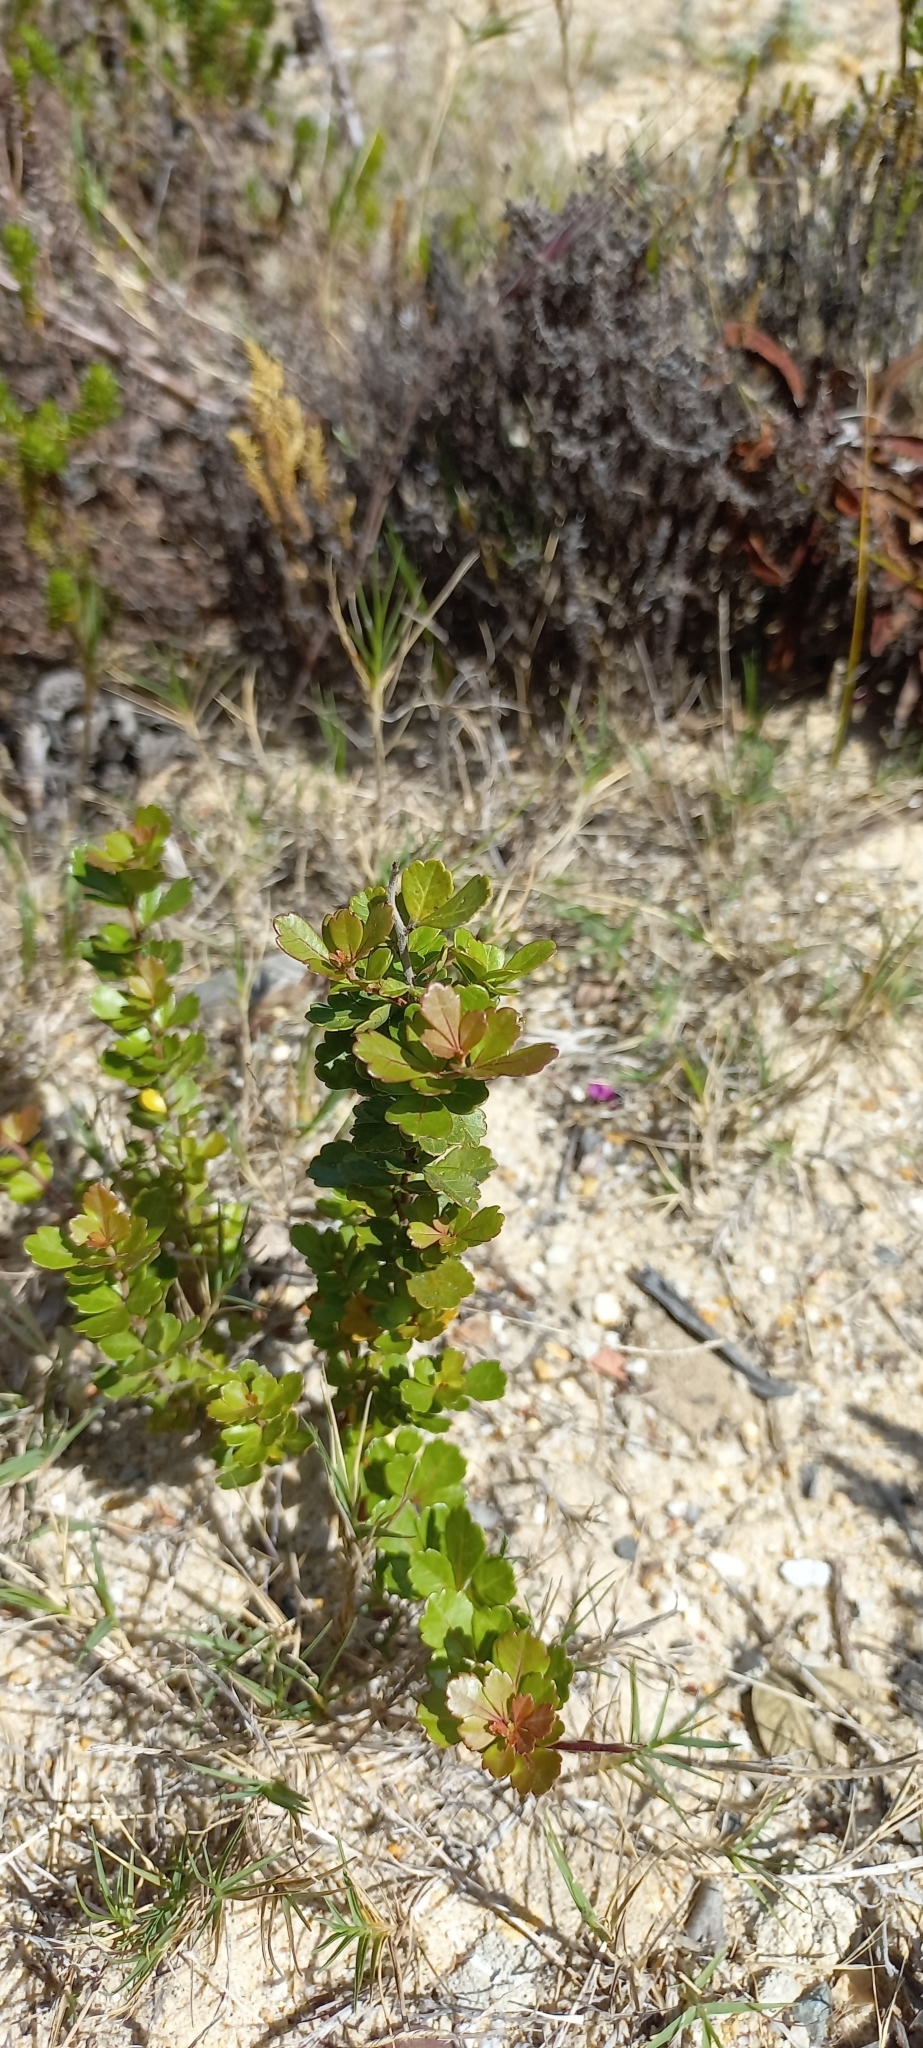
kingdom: Plantae
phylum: Tracheophyta
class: Magnoliopsida
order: Sapindales
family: Anacardiaceae
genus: Searsia
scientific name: Searsia crenata
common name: Crowberry
